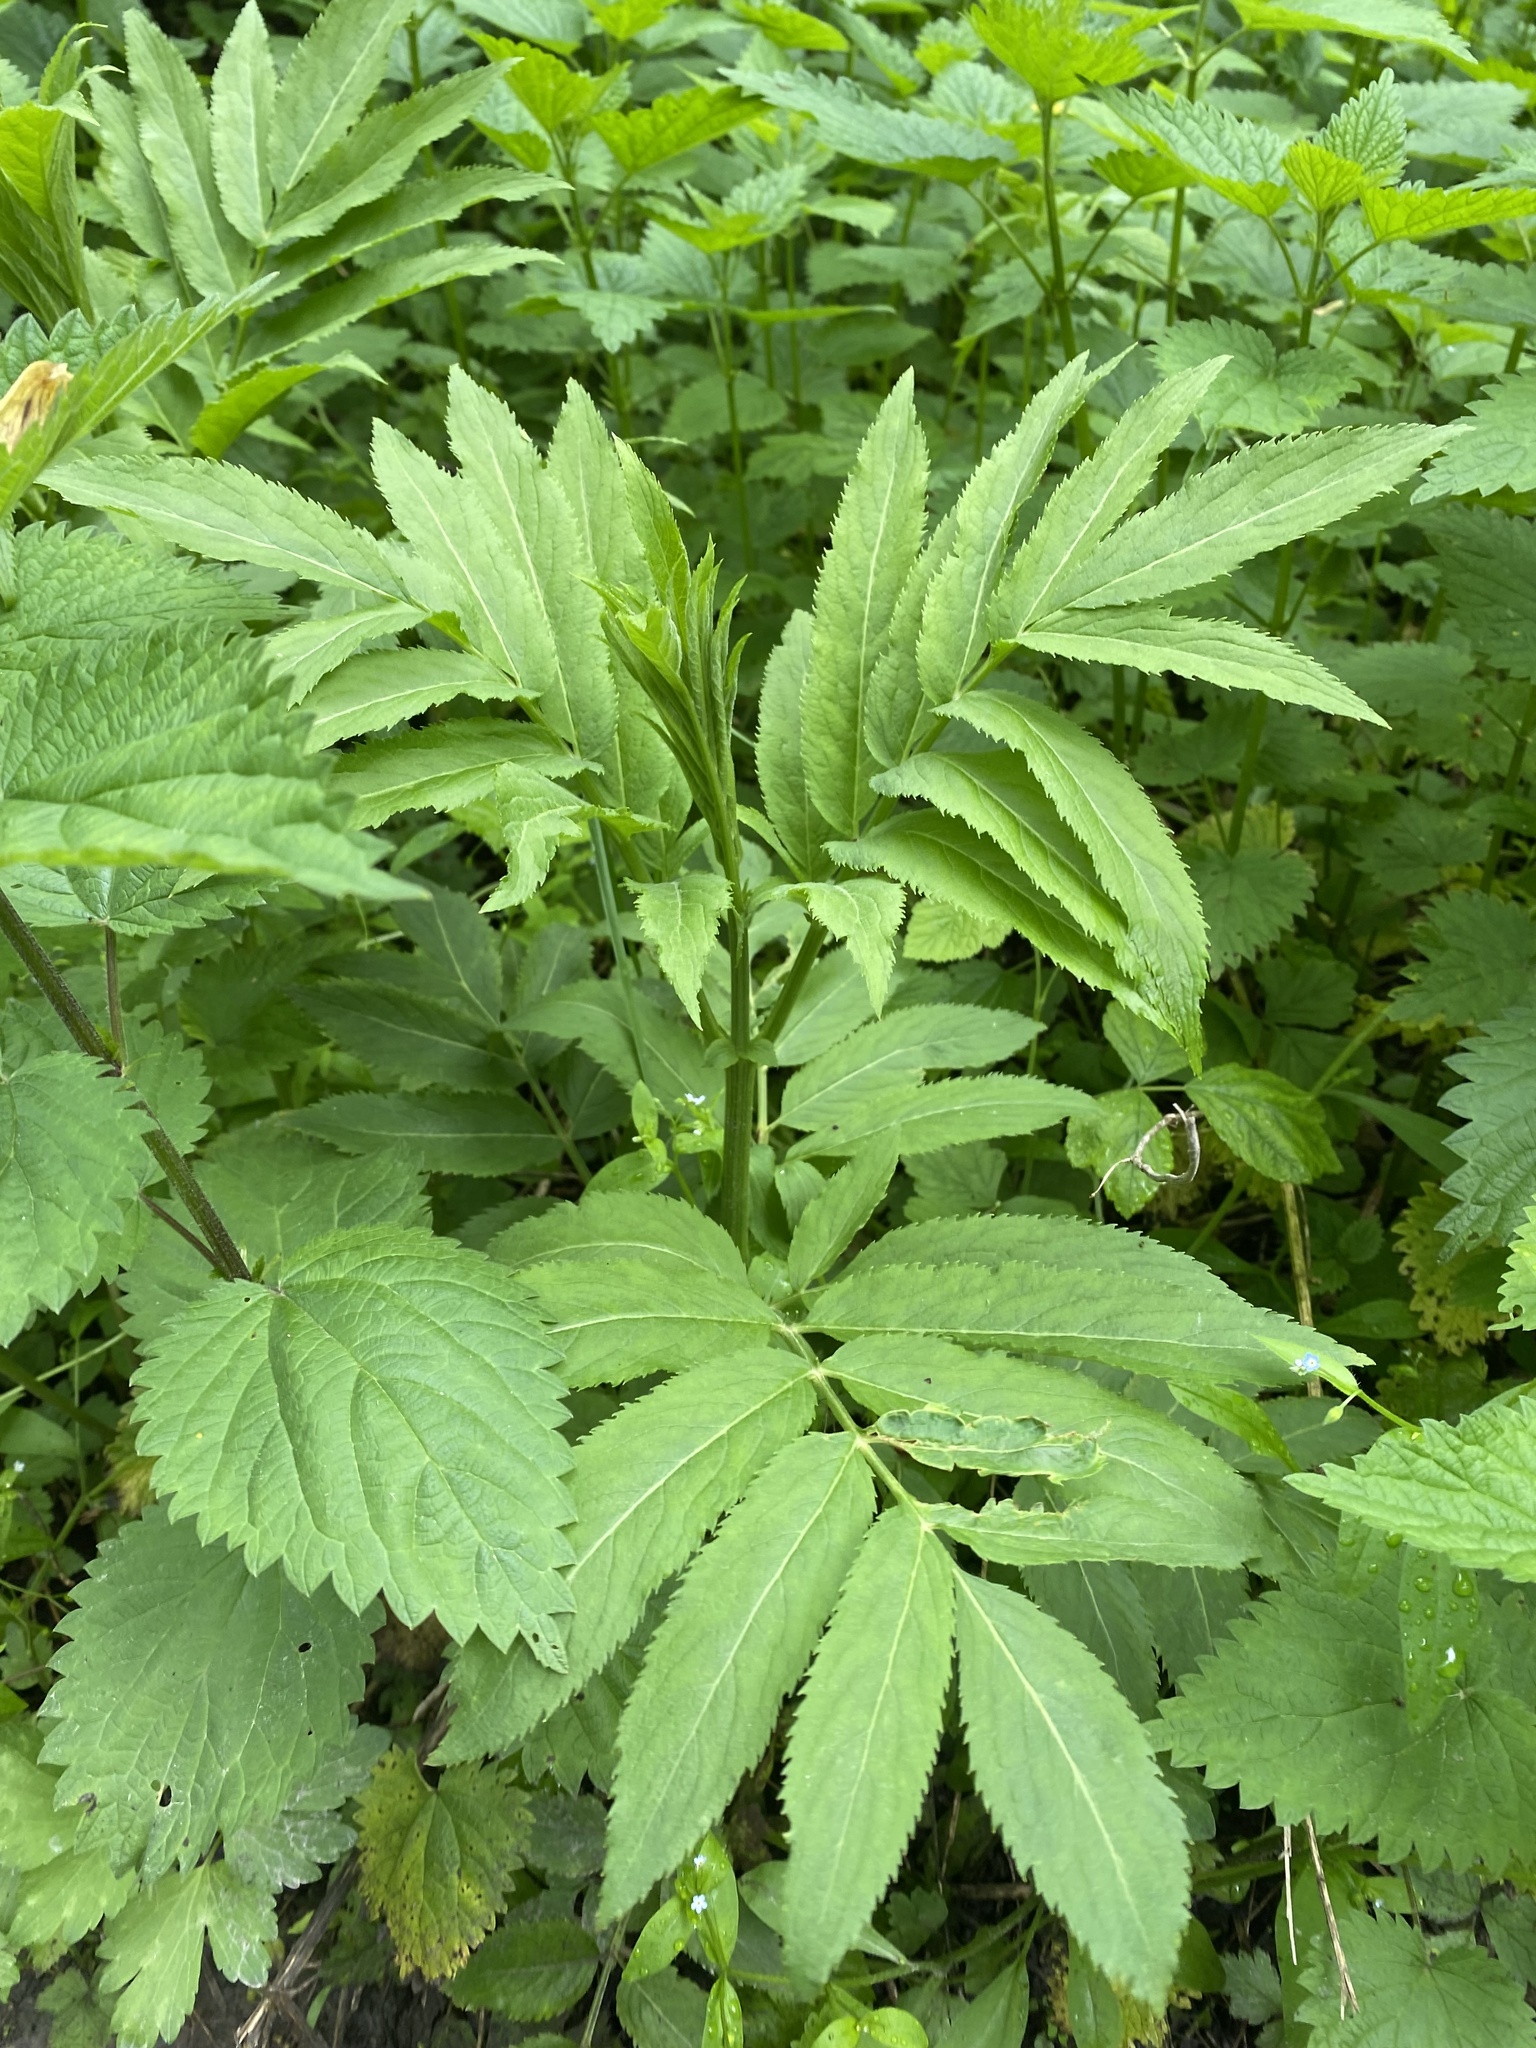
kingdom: Plantae
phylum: Tracheophyta
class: Magnoliopsida
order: Dipsacales
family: Viburnaceae
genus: Sambucus
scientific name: Sambucus ebulus
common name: Dwarf elder
